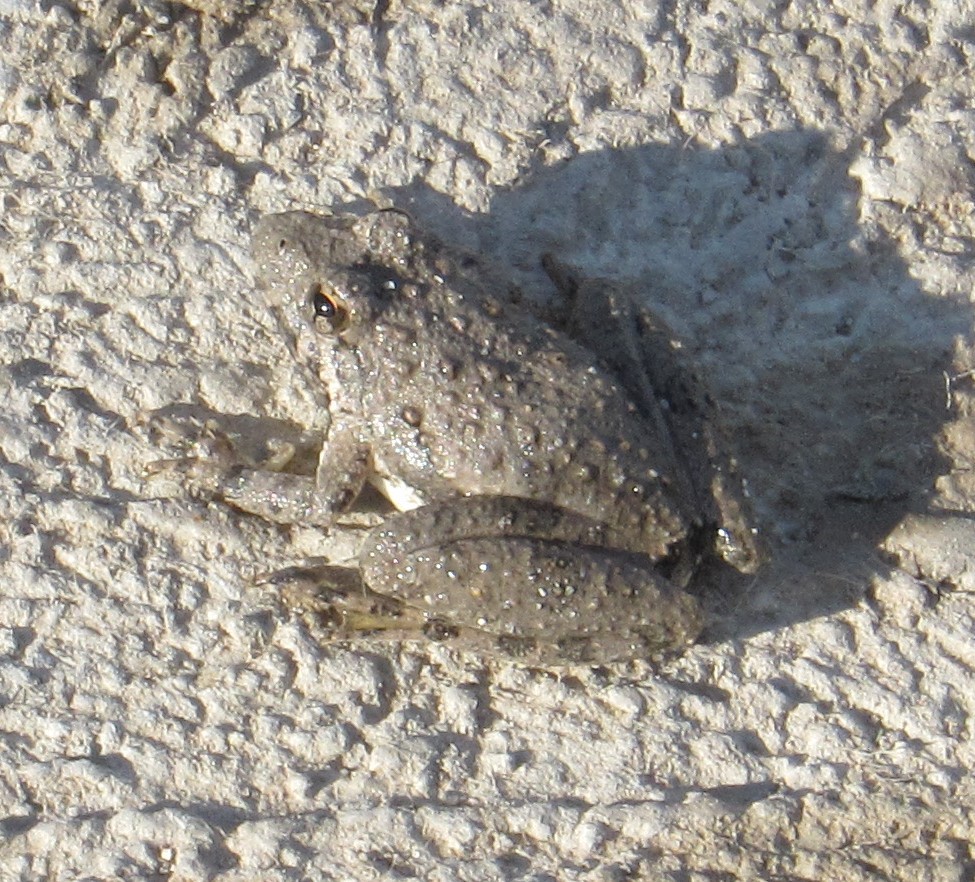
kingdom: Animalia
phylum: Chordata
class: Amphibia
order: Anura
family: Hylidae
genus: Acris
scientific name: Acris blanchardi
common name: Blanchard's cricket frog
